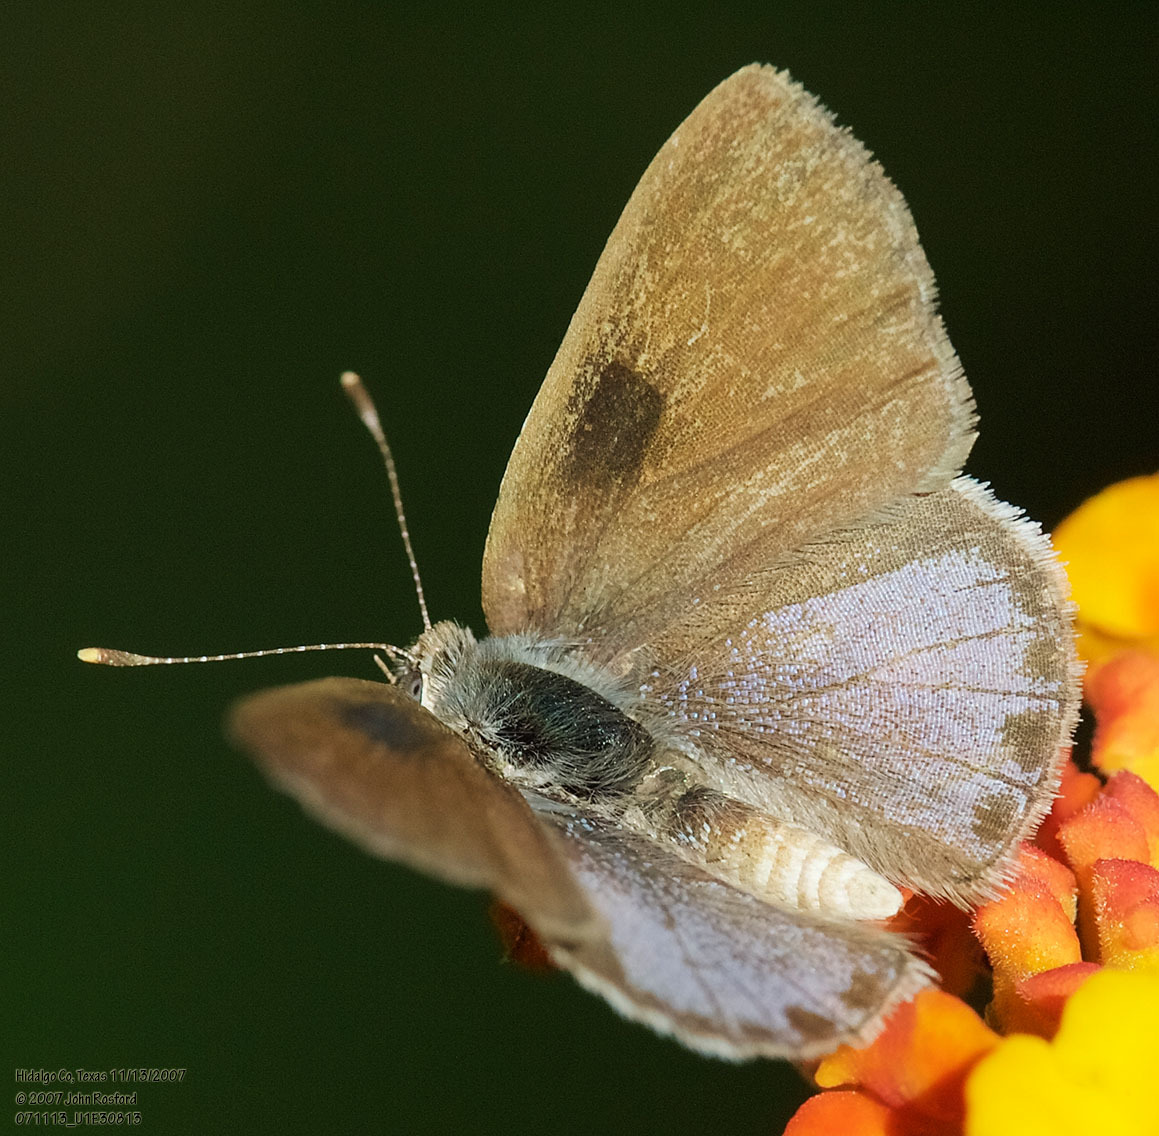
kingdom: Animalia
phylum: Arthropoda
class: Insecta
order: Lepidoptera
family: Lycaenidae
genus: Strymon
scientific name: Strymon bazochii
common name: Lantana scrub-hairstreak
